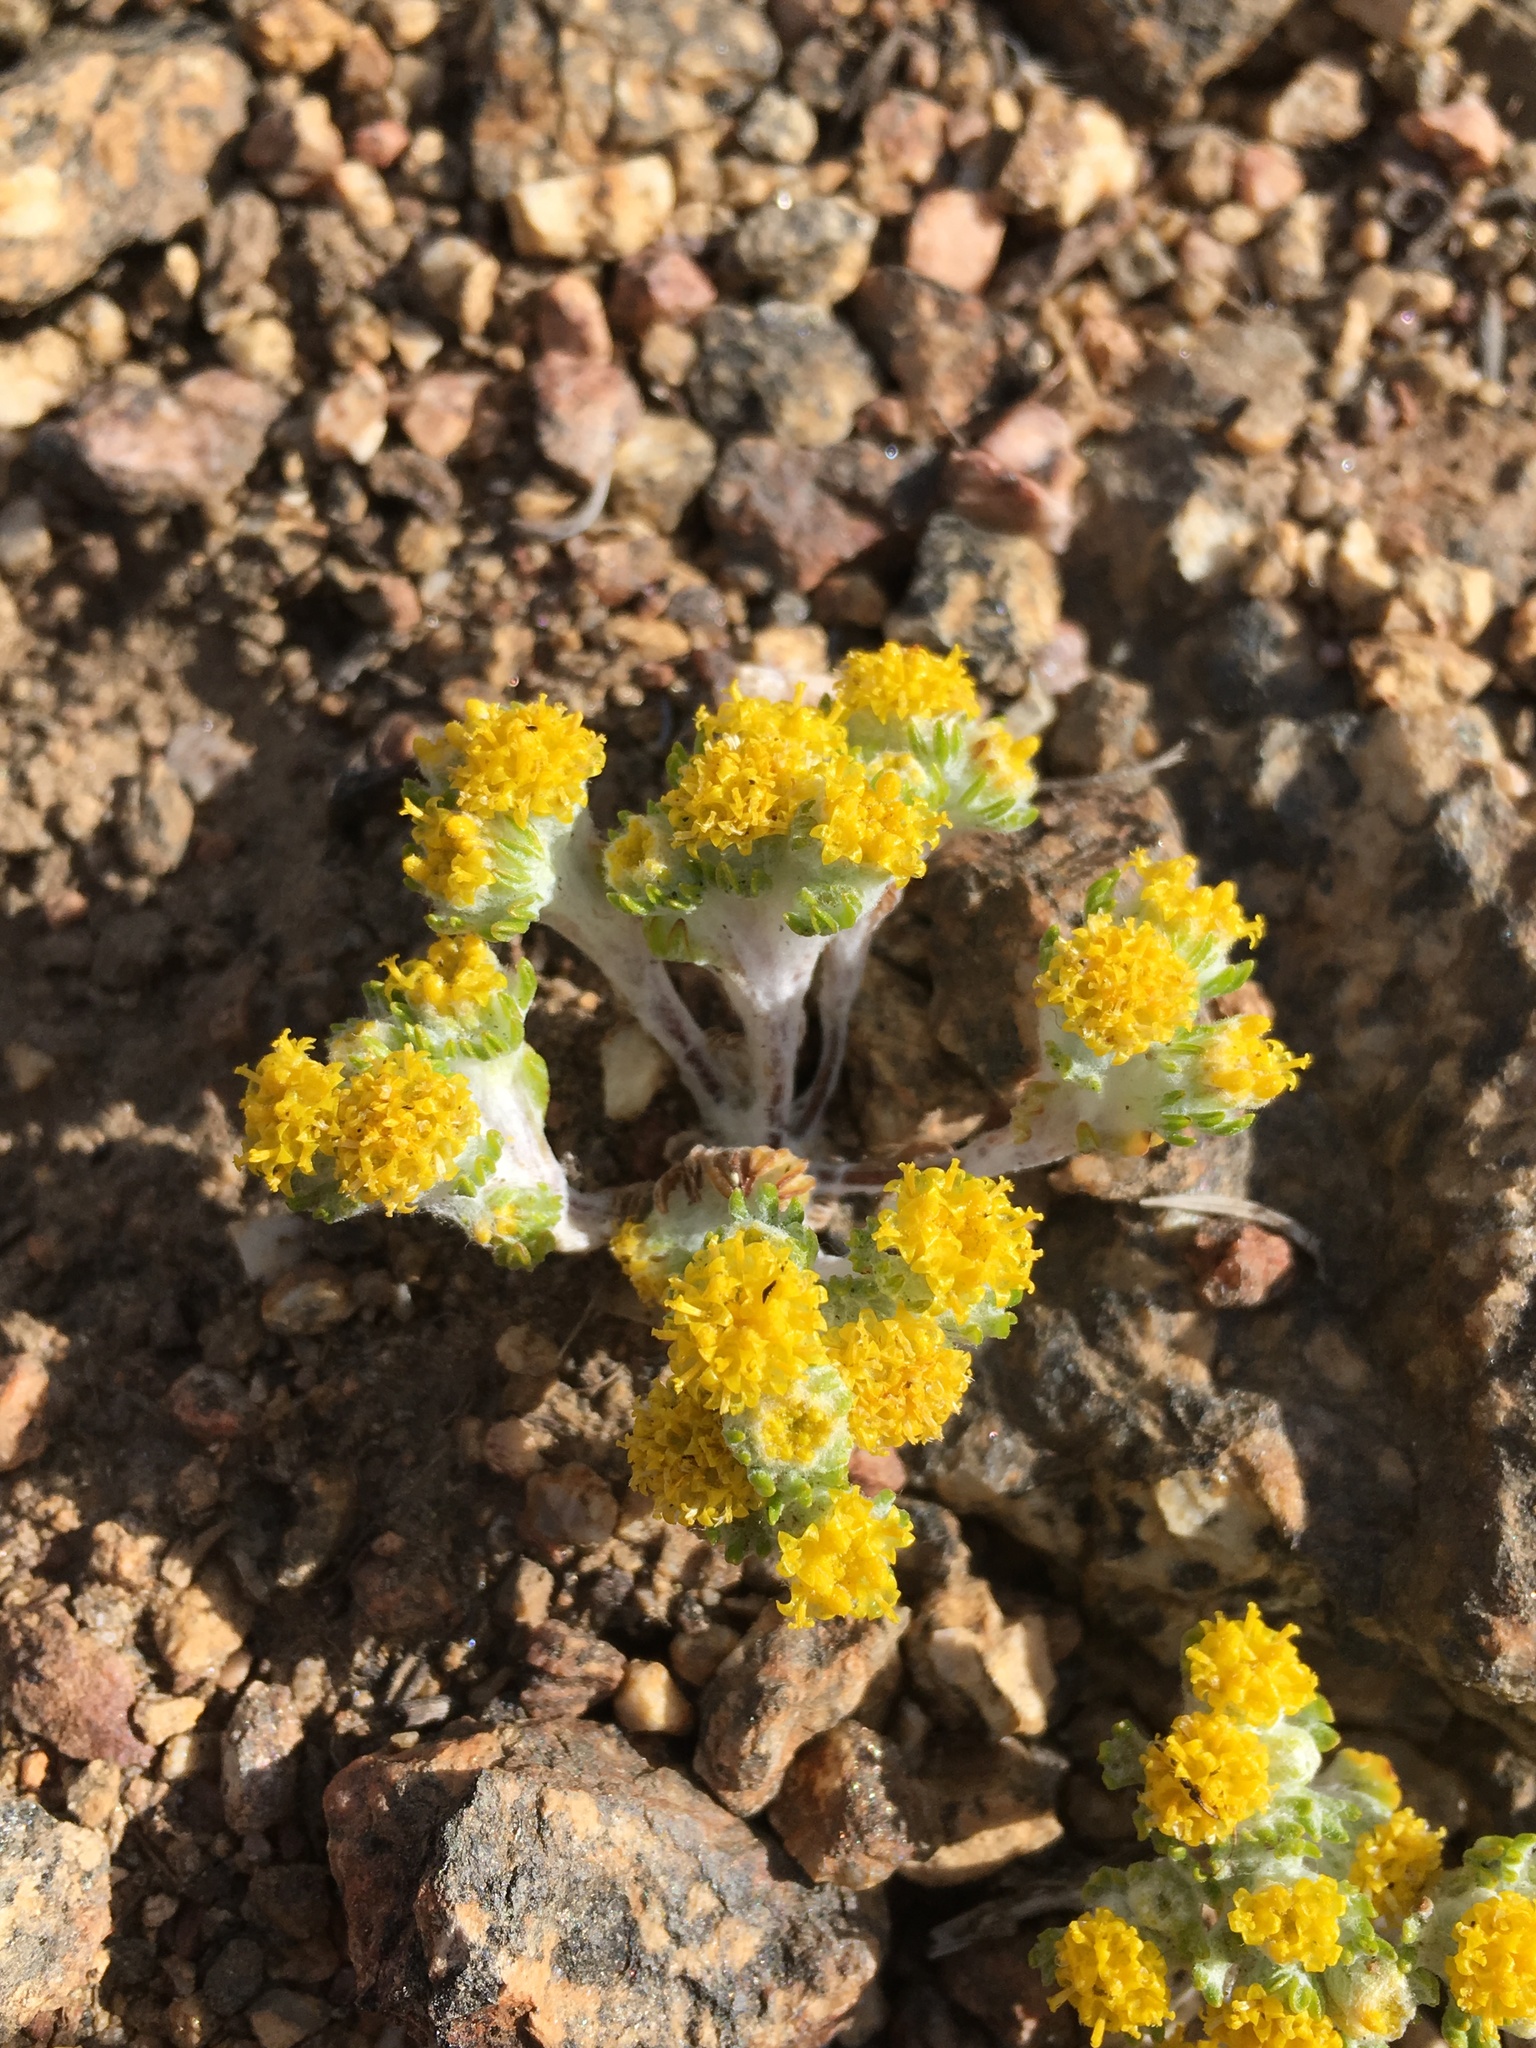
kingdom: Plantae
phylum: Tracheophyta
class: Magnoliopsida
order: Asterales
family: Asteraceae
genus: Eriophyllum
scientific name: Eriophyllum pringlei
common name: Pringle's woolly-sunflower
